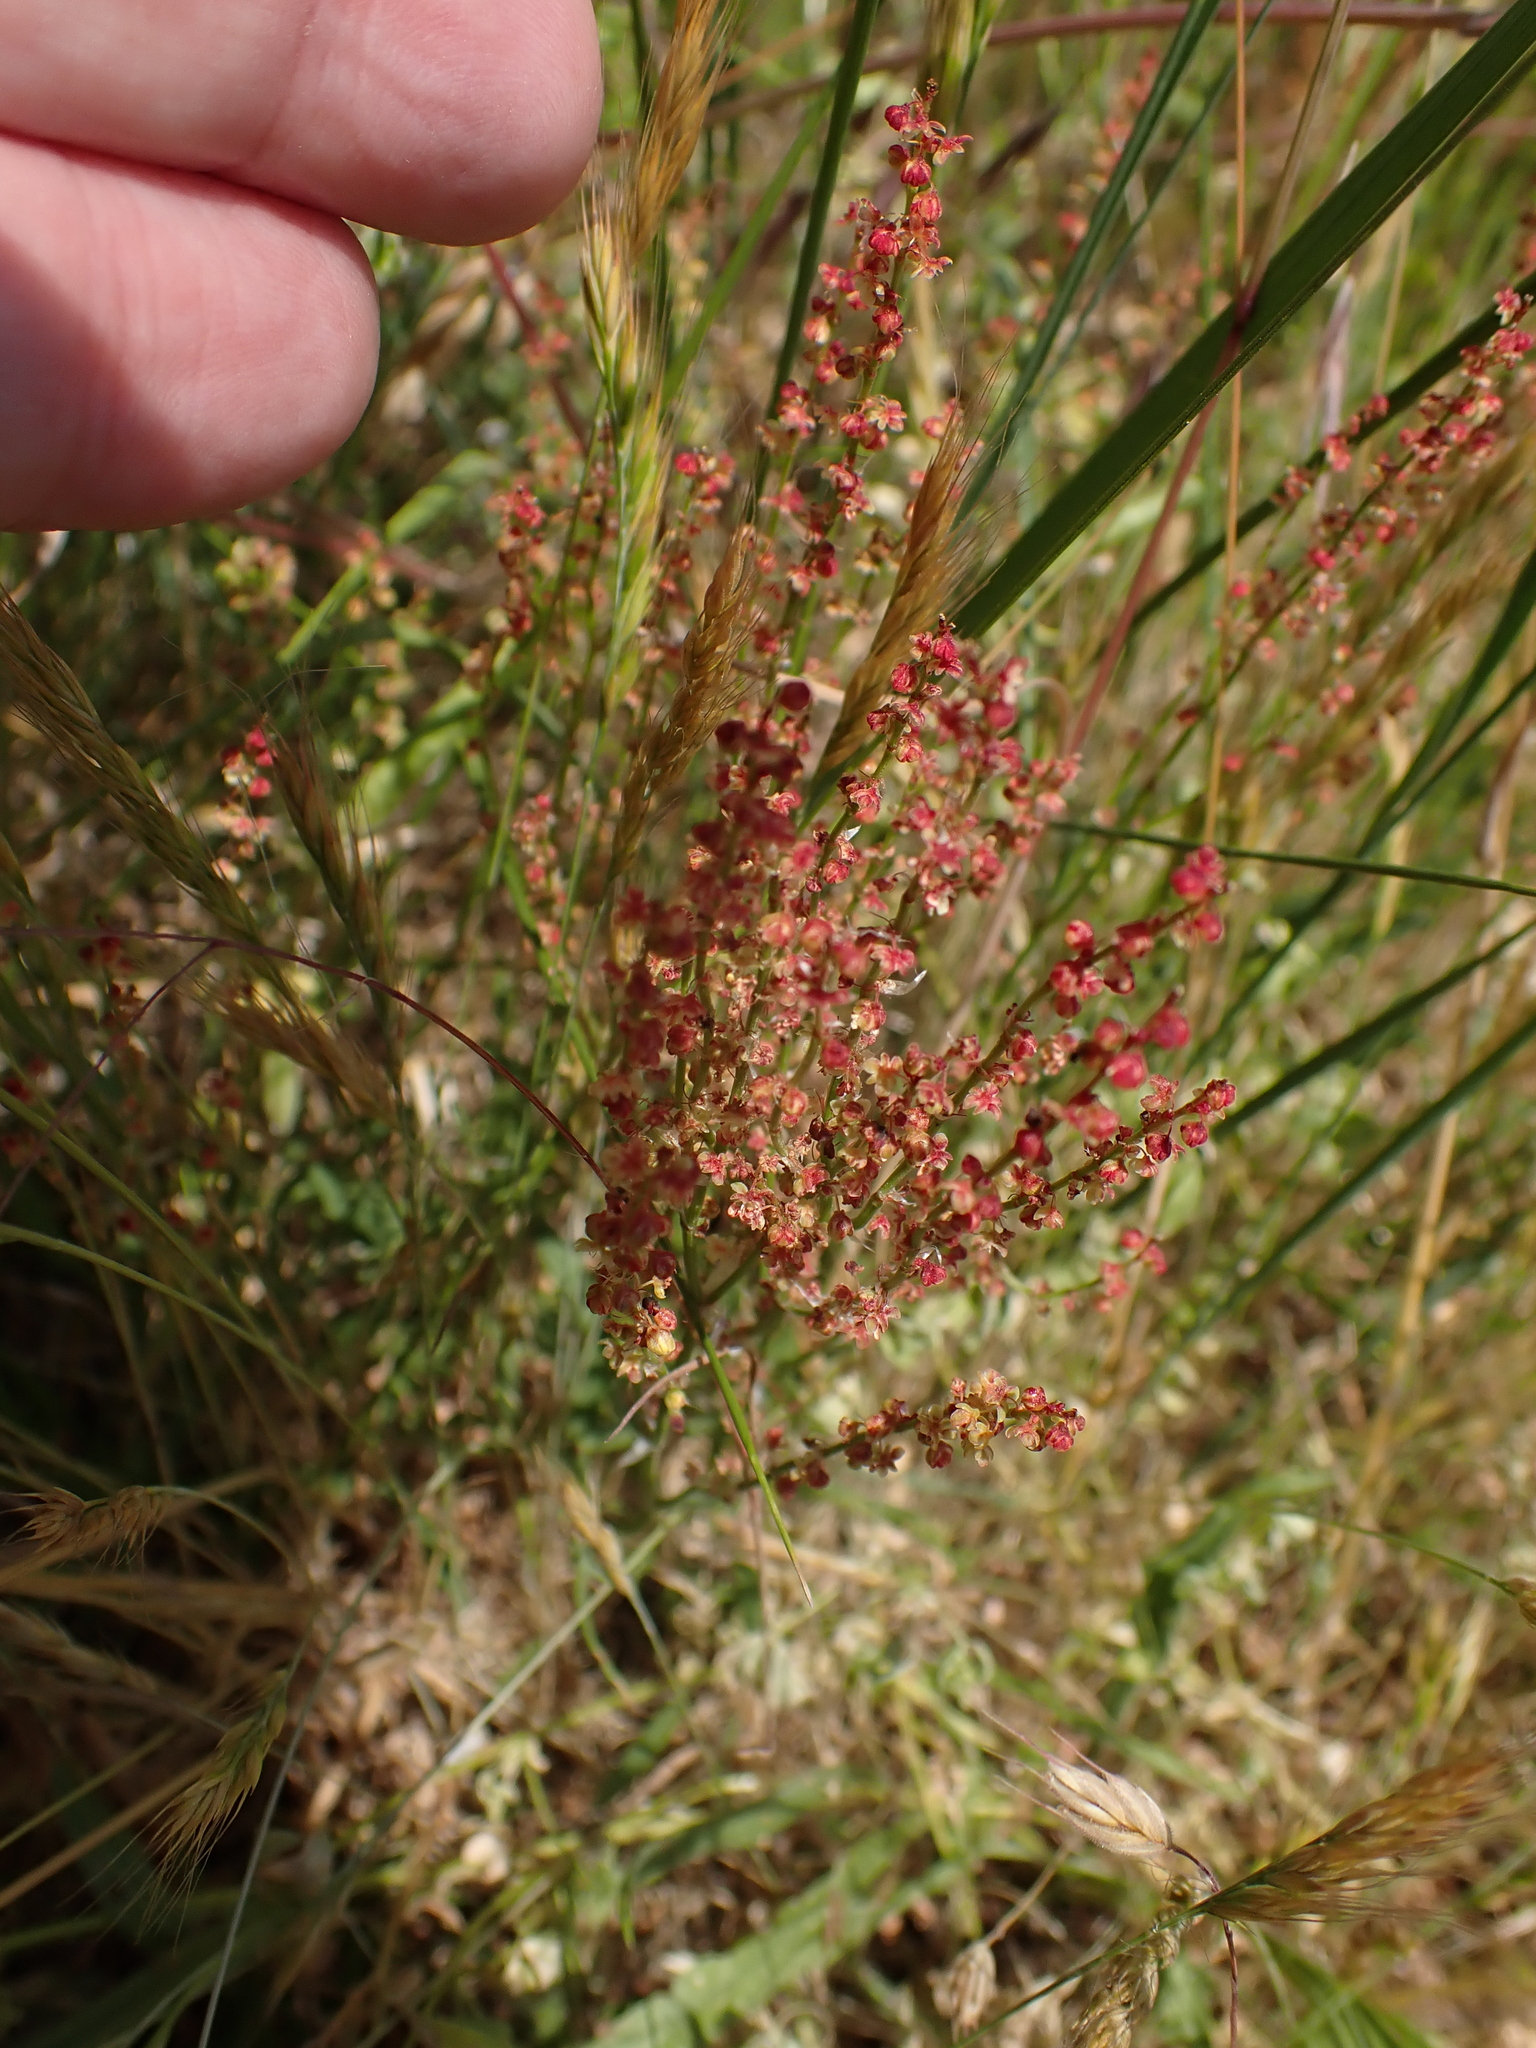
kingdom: Plantae
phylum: Tracheophyta
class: Magnoliopsida
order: Caryophyllales
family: Polygonaceae
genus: Rumex
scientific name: Rumex acetosella
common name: Common sheep sorrel
